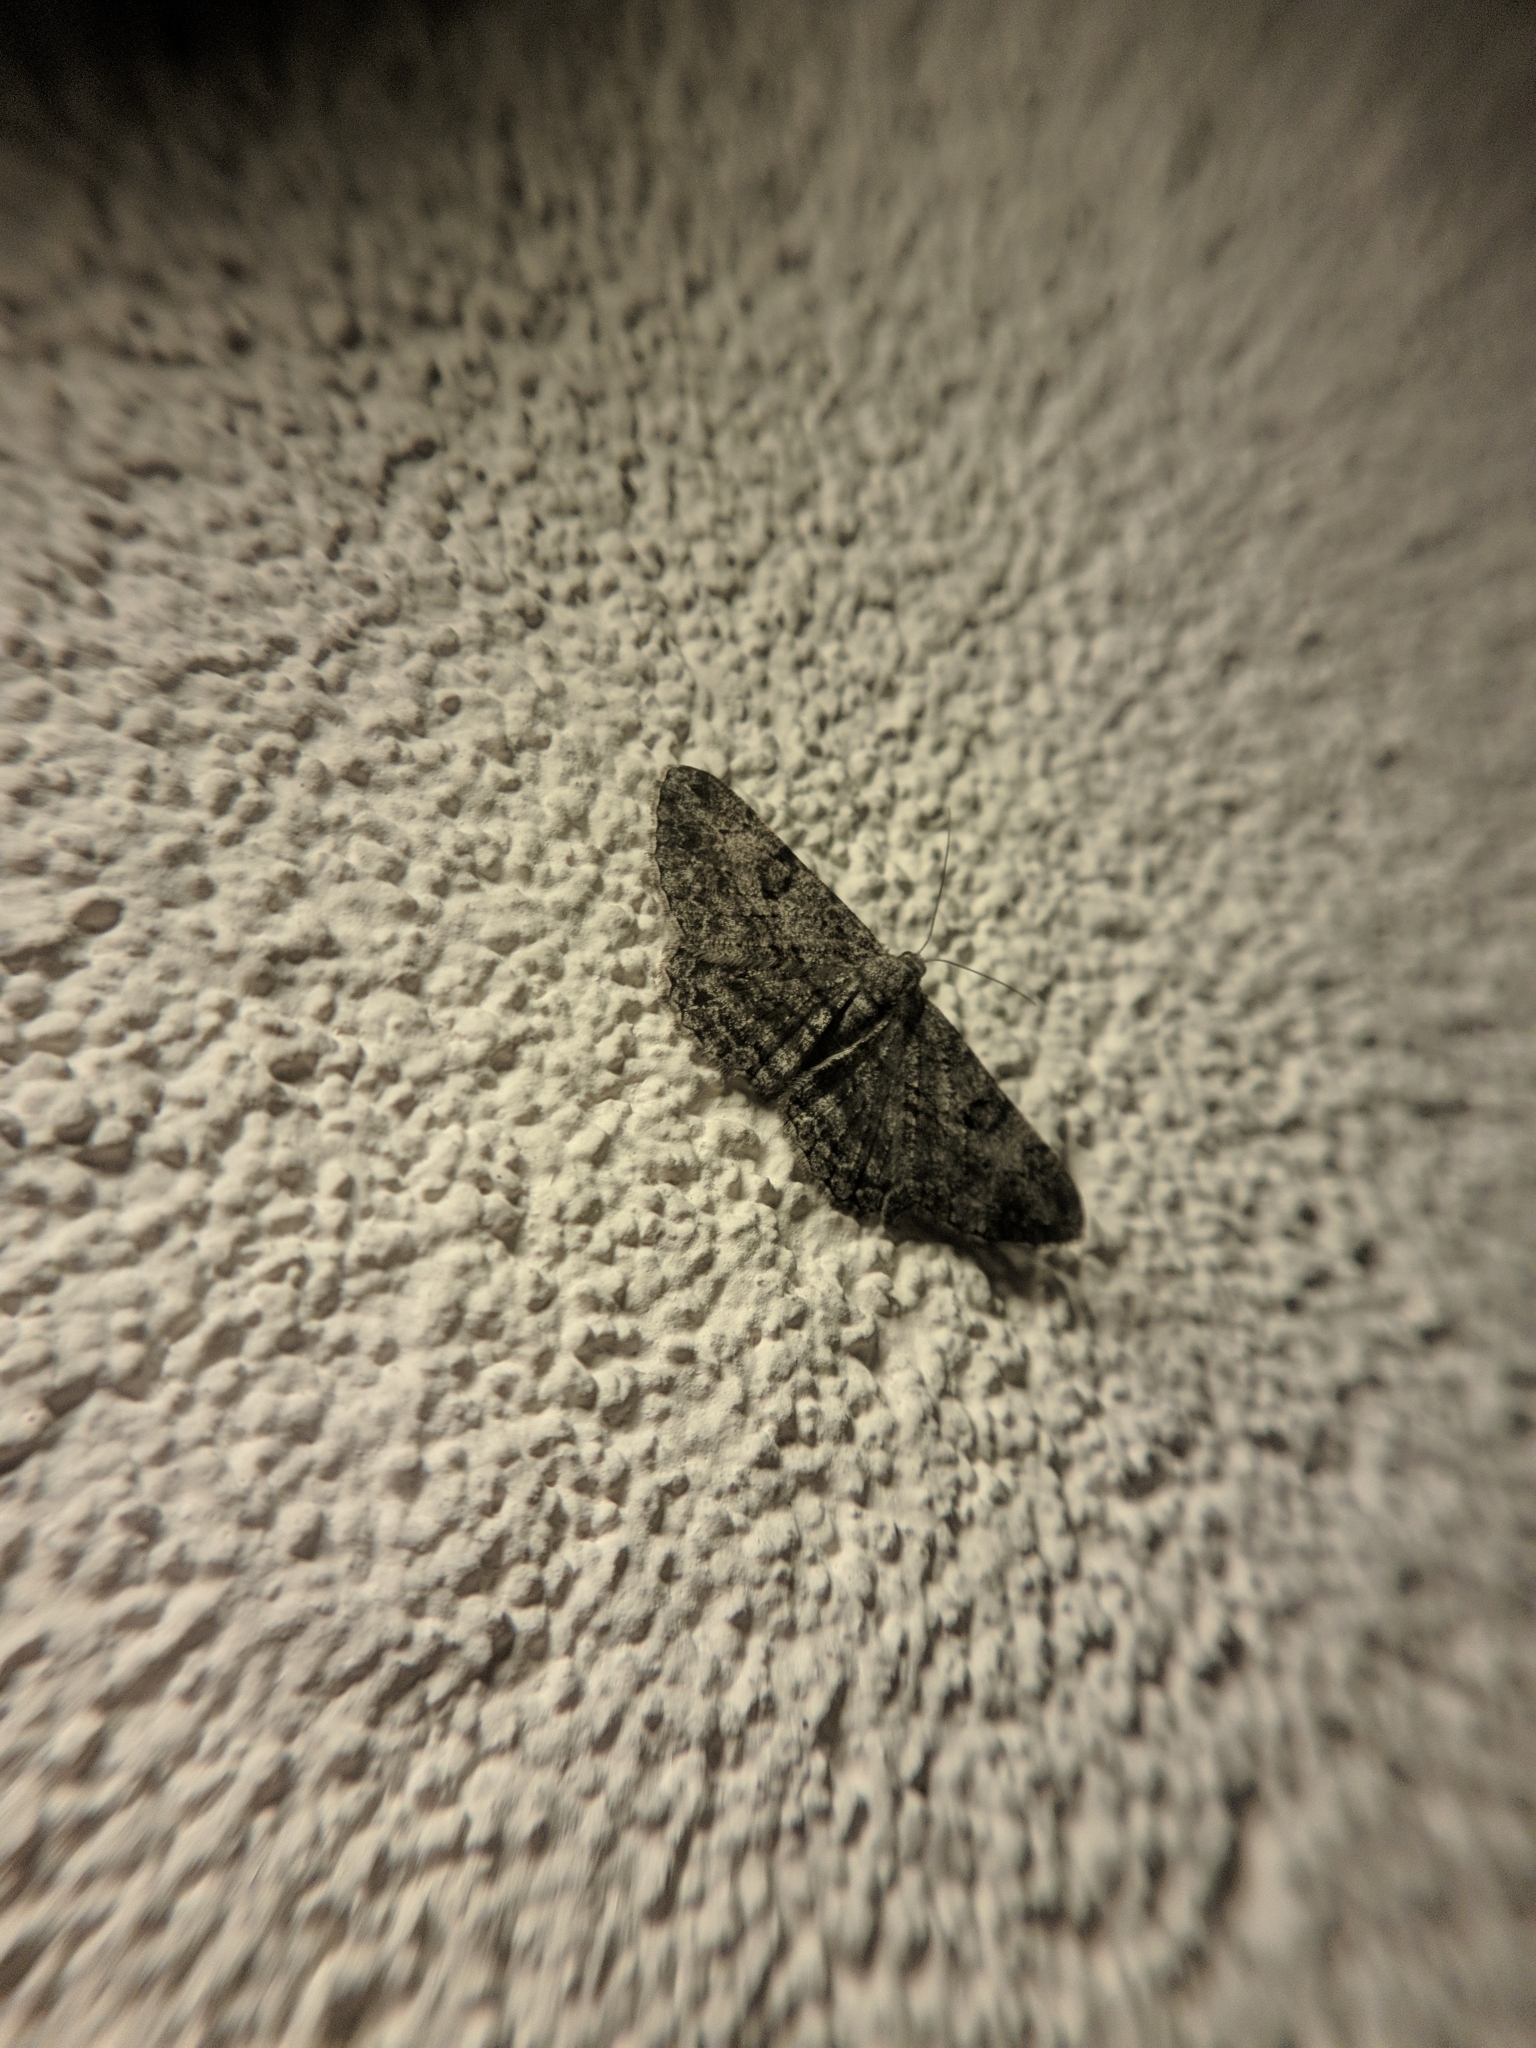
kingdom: Animalia
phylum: Arthropoda
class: Insecta
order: Lepidoptera
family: Geometridae
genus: Peribatodes
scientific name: Peribatodes rhomboidaria
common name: Willow beauty
